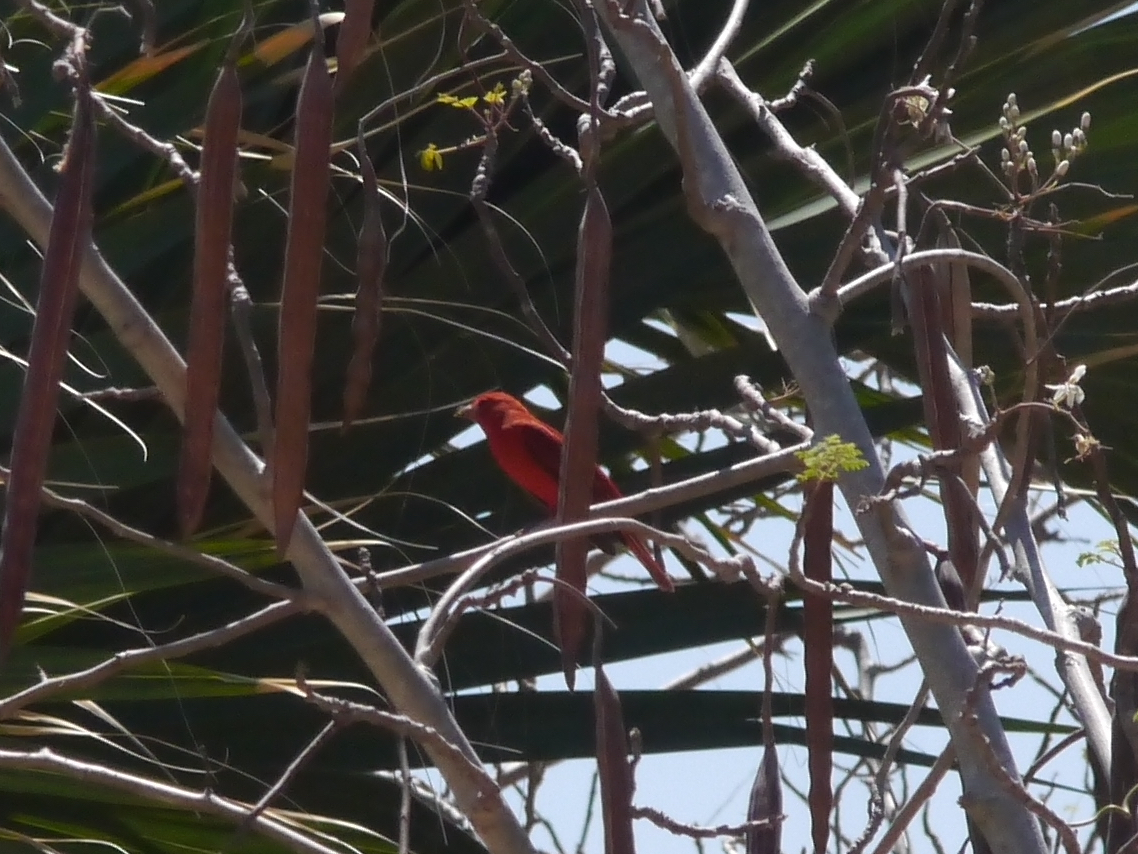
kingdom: Animalia
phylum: Chordata
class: Aves
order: Passeriformes
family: Cardinalidae
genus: Piranga
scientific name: Piranga rubra
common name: Summer tanager
